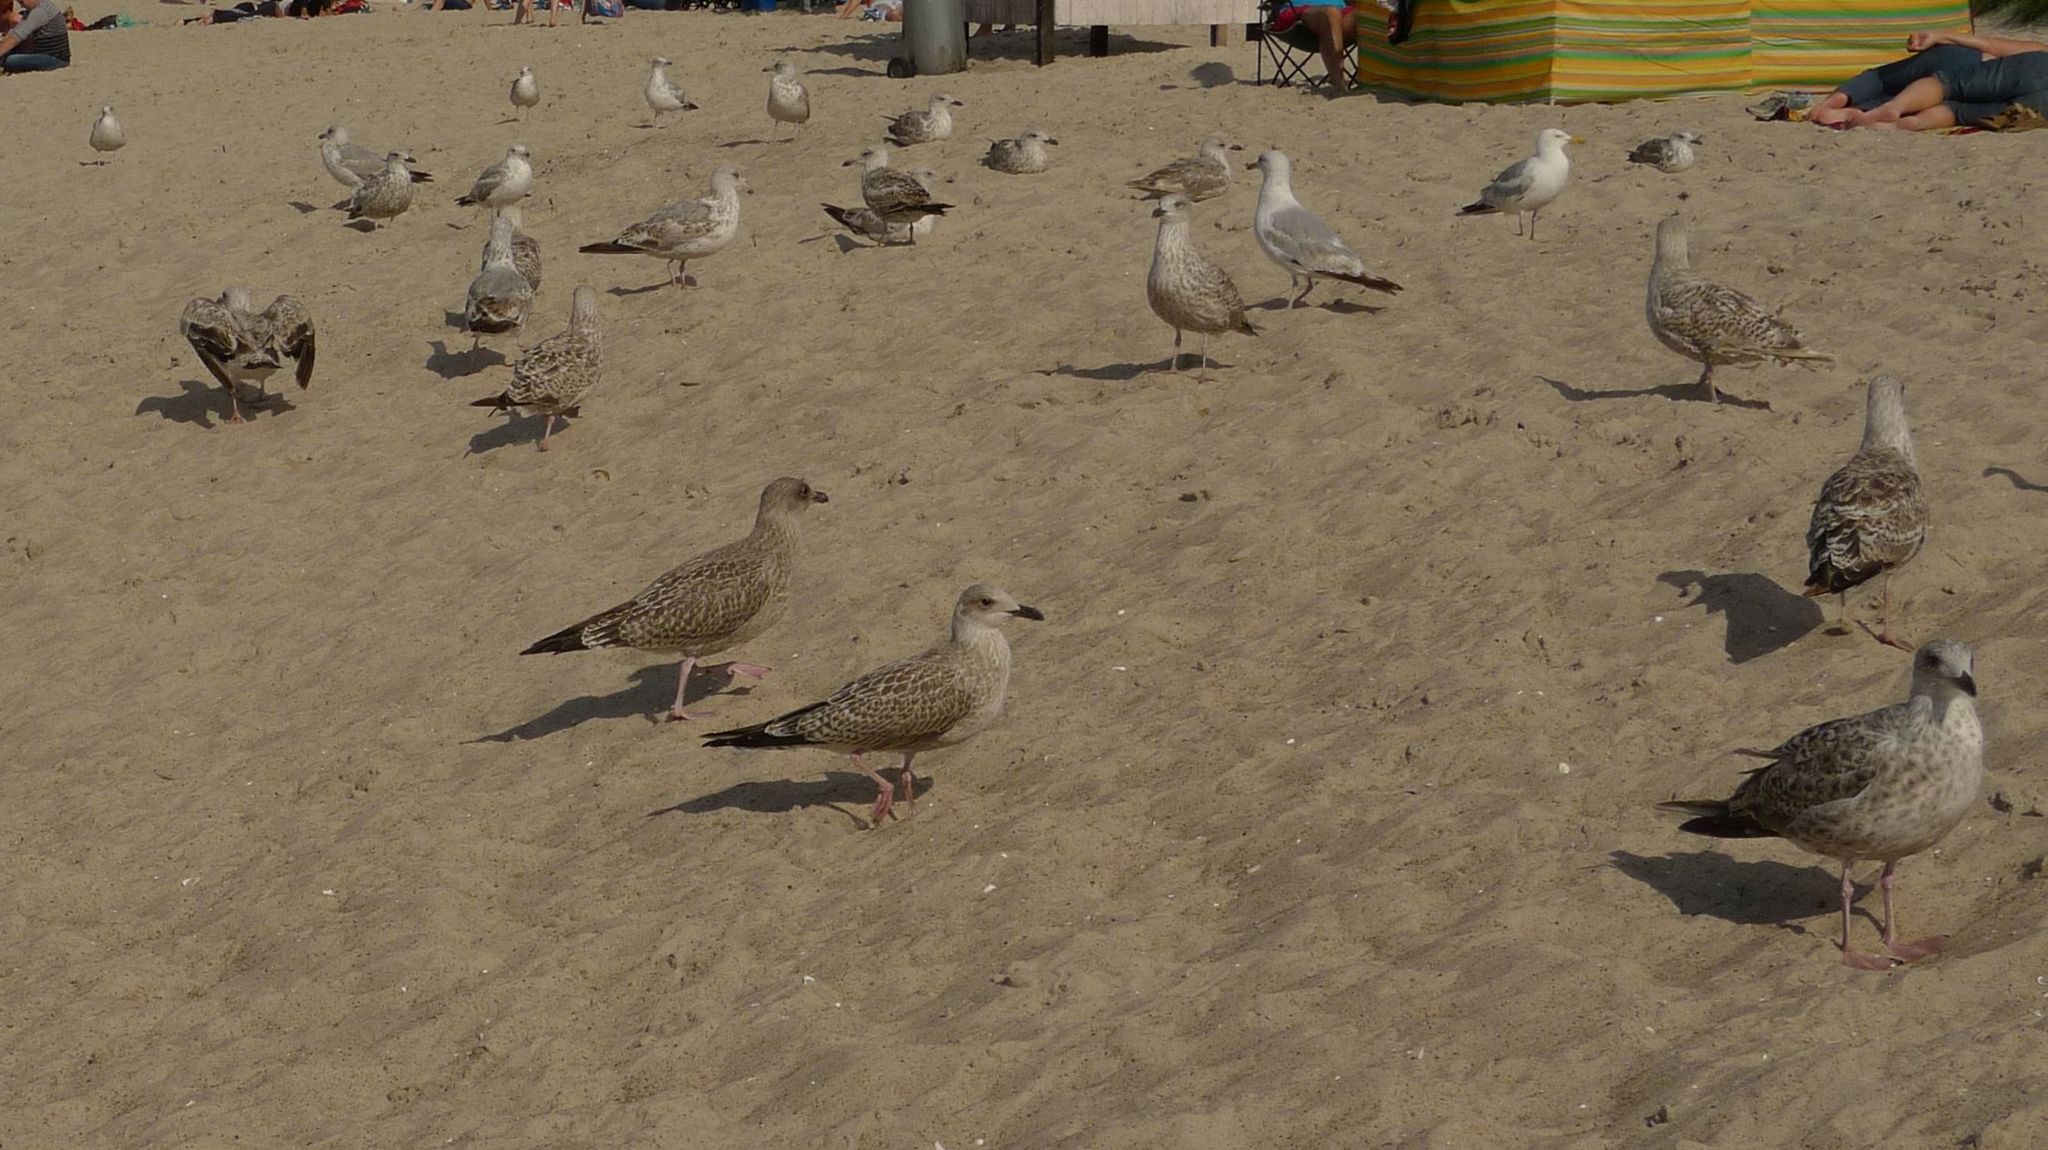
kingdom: Animalia
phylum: Chordata
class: Aves
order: Charadriiformes
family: Laridae
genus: Larus
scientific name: Larus argentatus
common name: Herring gull
